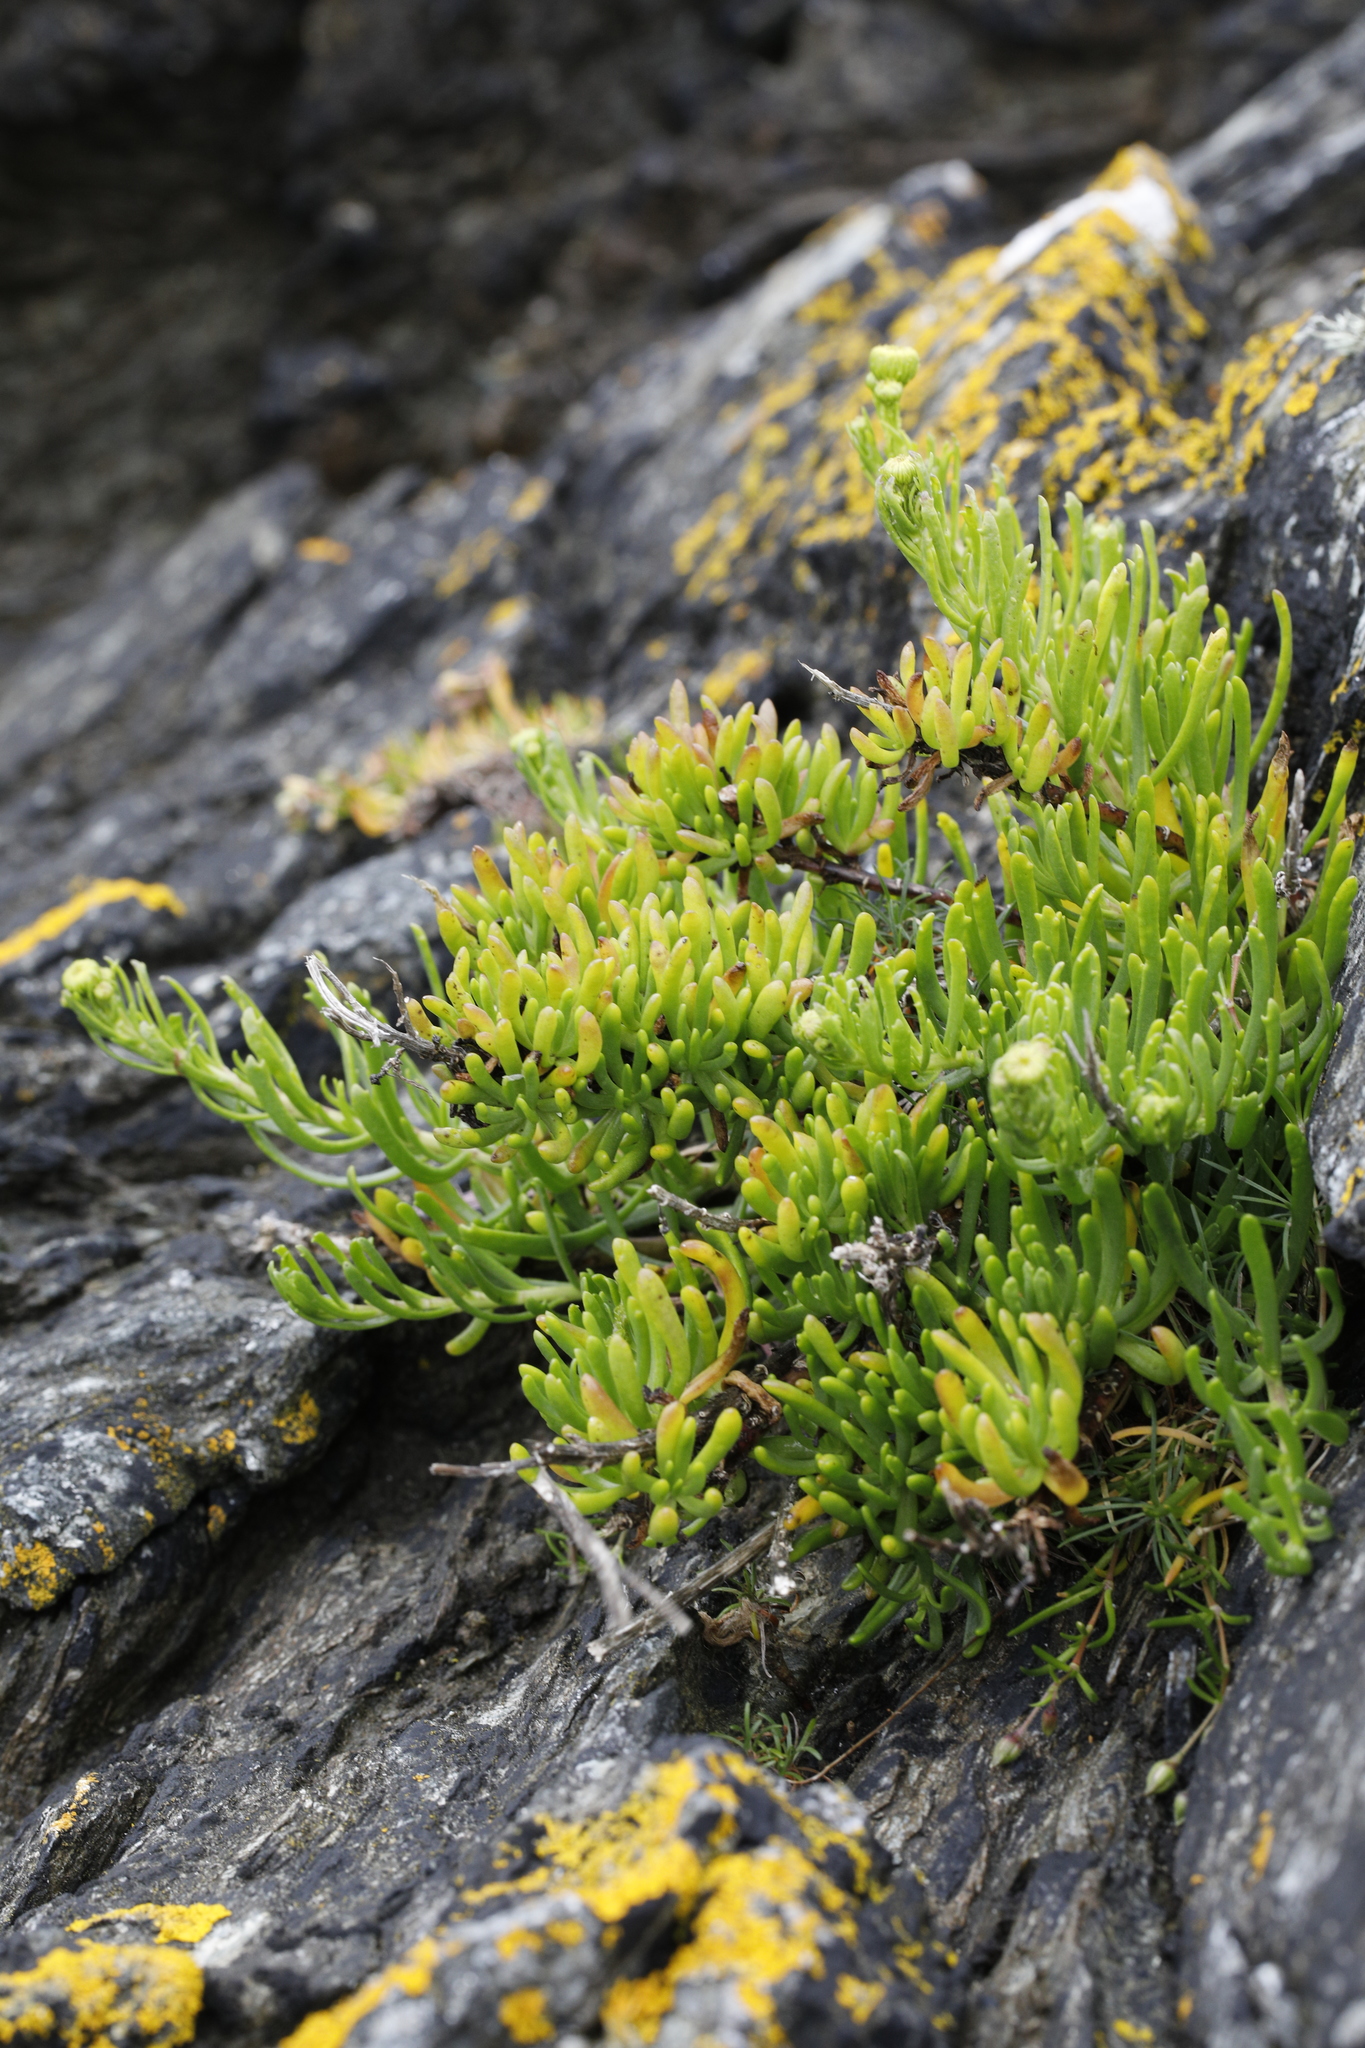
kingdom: Plantae
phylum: Tracheophyta
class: Magnoliopsida
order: Asterales
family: Asteraceae
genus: Limbarda
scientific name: Limbarda crithmoides
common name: Golden samphire
